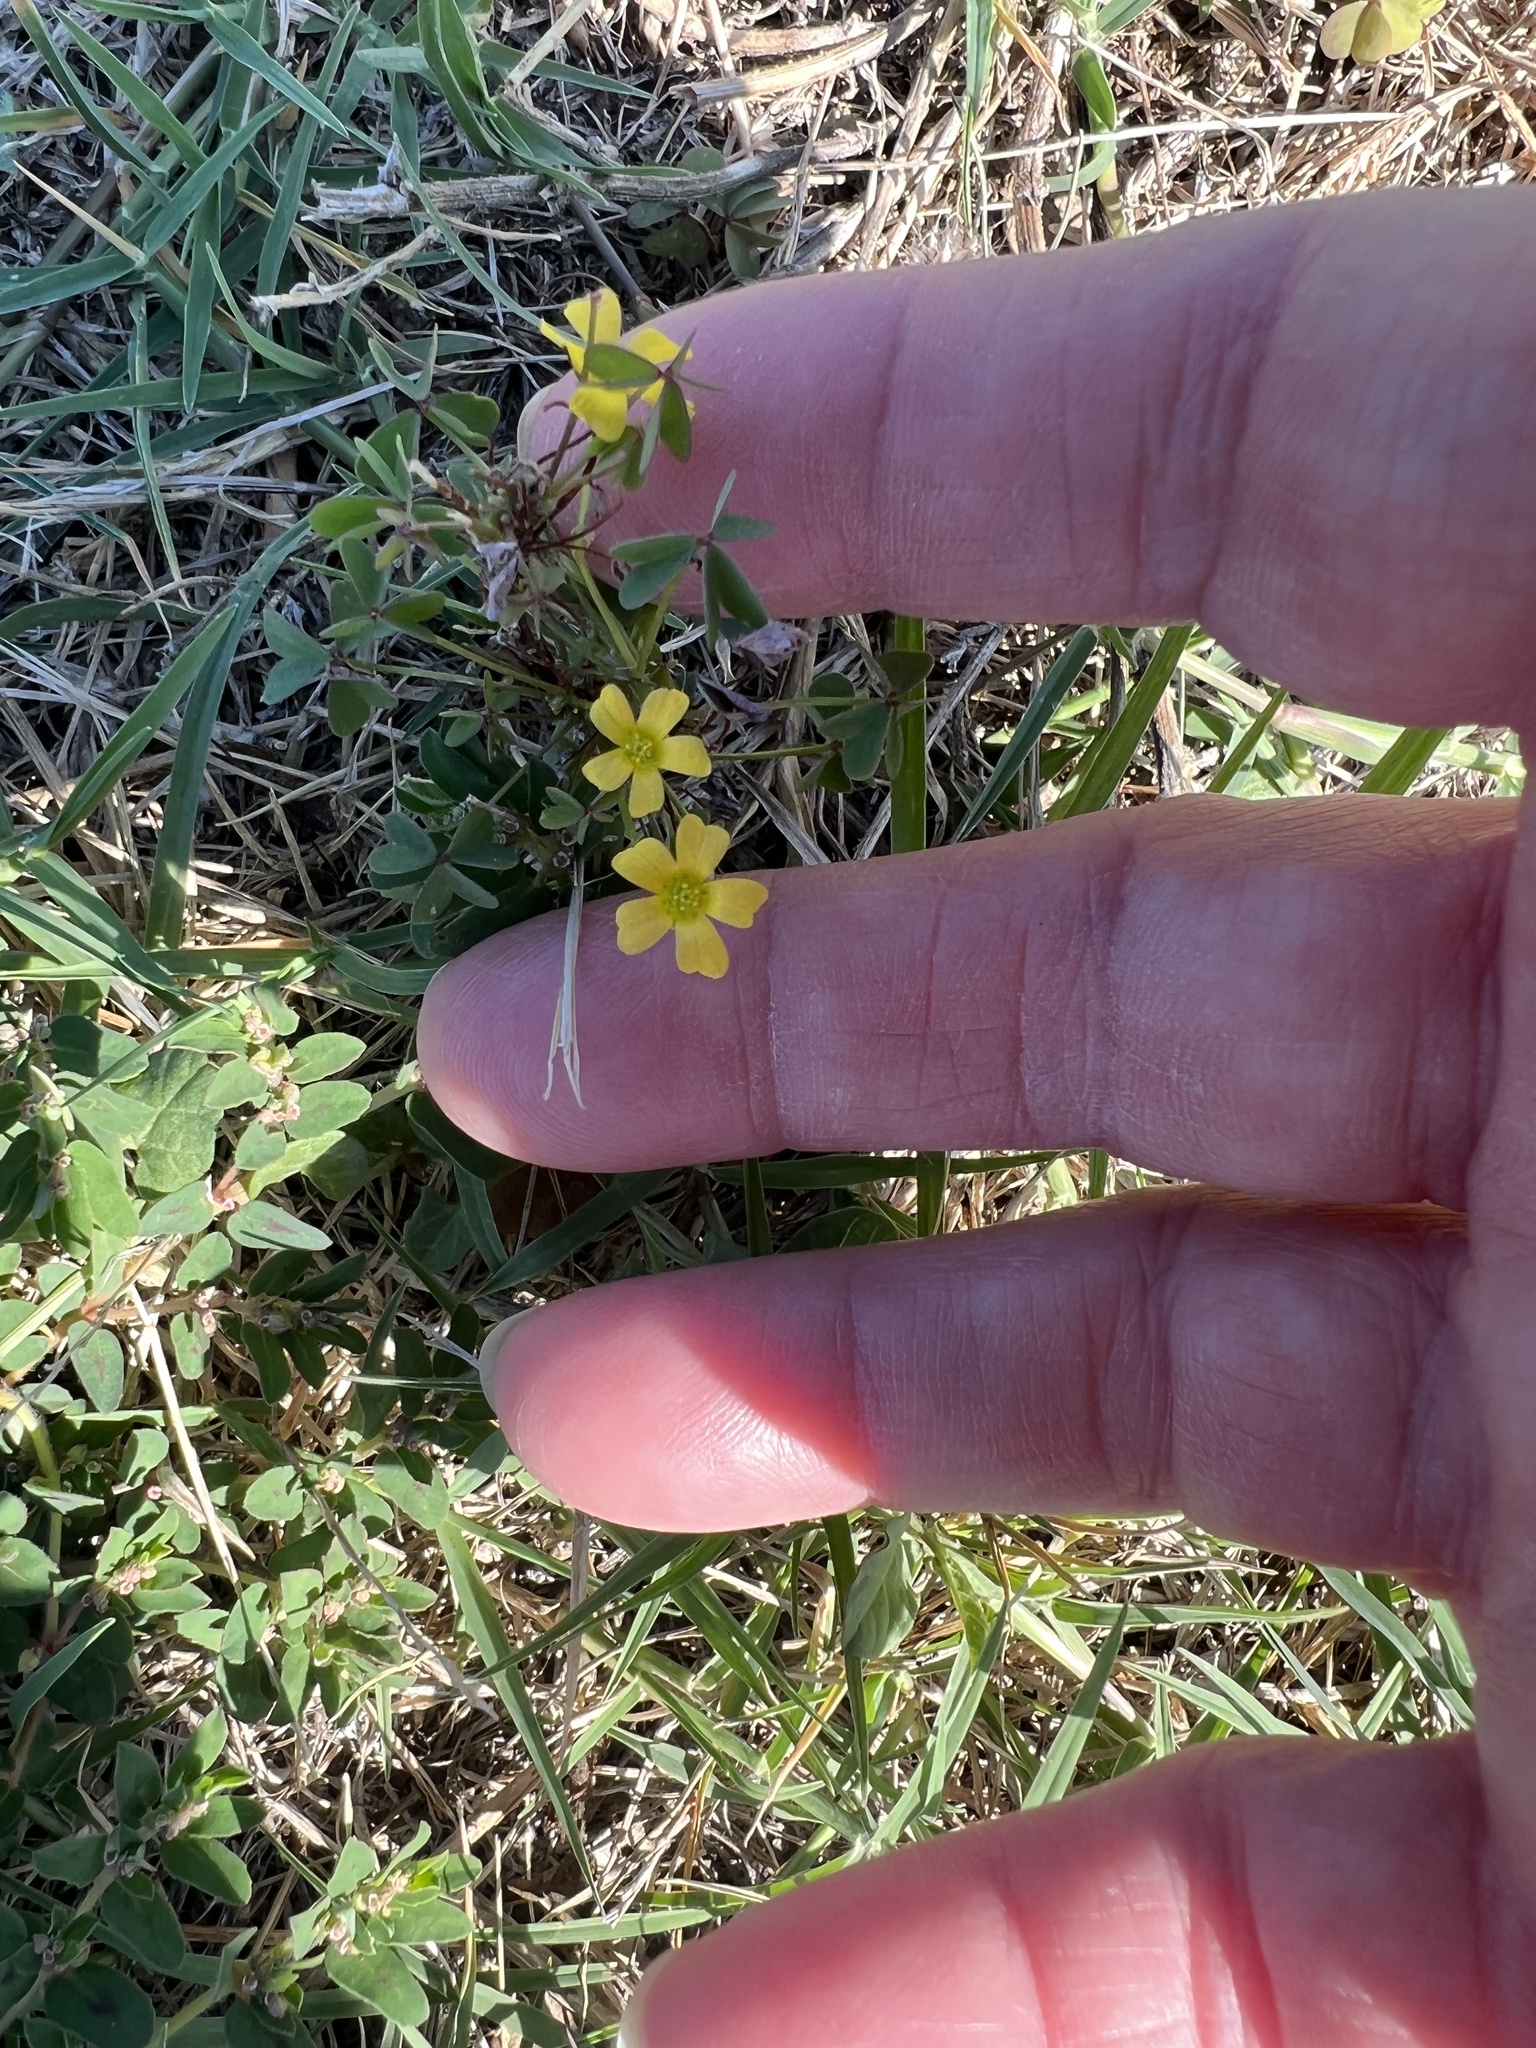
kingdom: Plantae
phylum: Tracheophyta
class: Magnoliopsida
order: Oxalidales
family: Oxalidaceae
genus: Oxalis
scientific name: Oxalis dillenii
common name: Sussex yellow-sorrel
